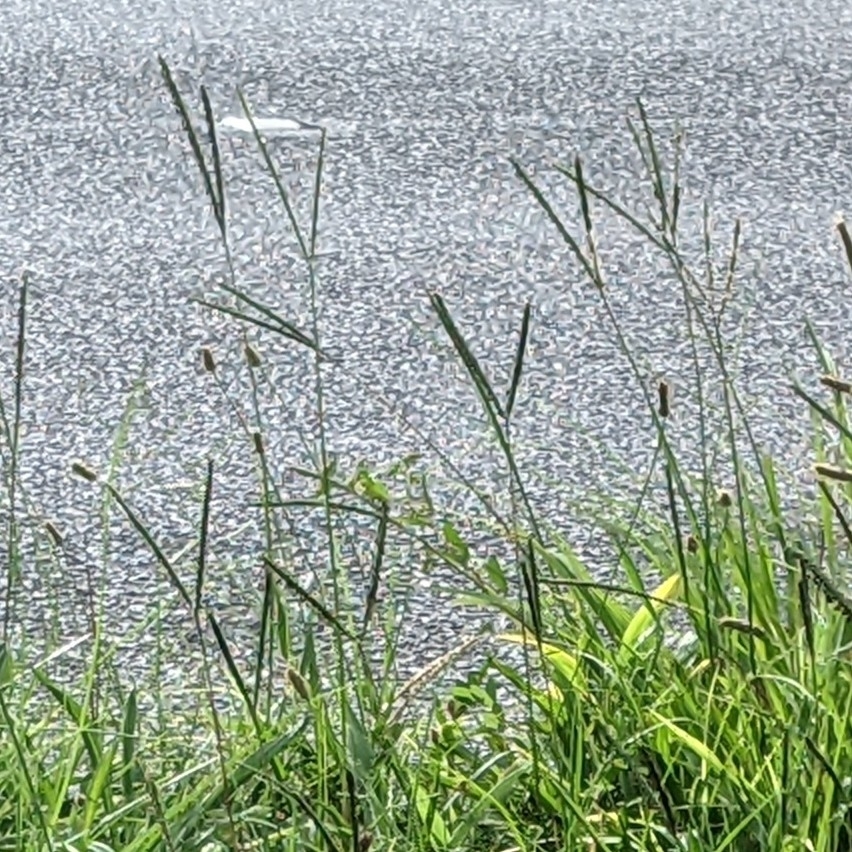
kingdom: Plantae
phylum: Tracheophyta
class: Liliopsida
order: Poales
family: Poaceae
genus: Paspalum
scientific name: Paspalum notatum
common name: Bahiagrass
